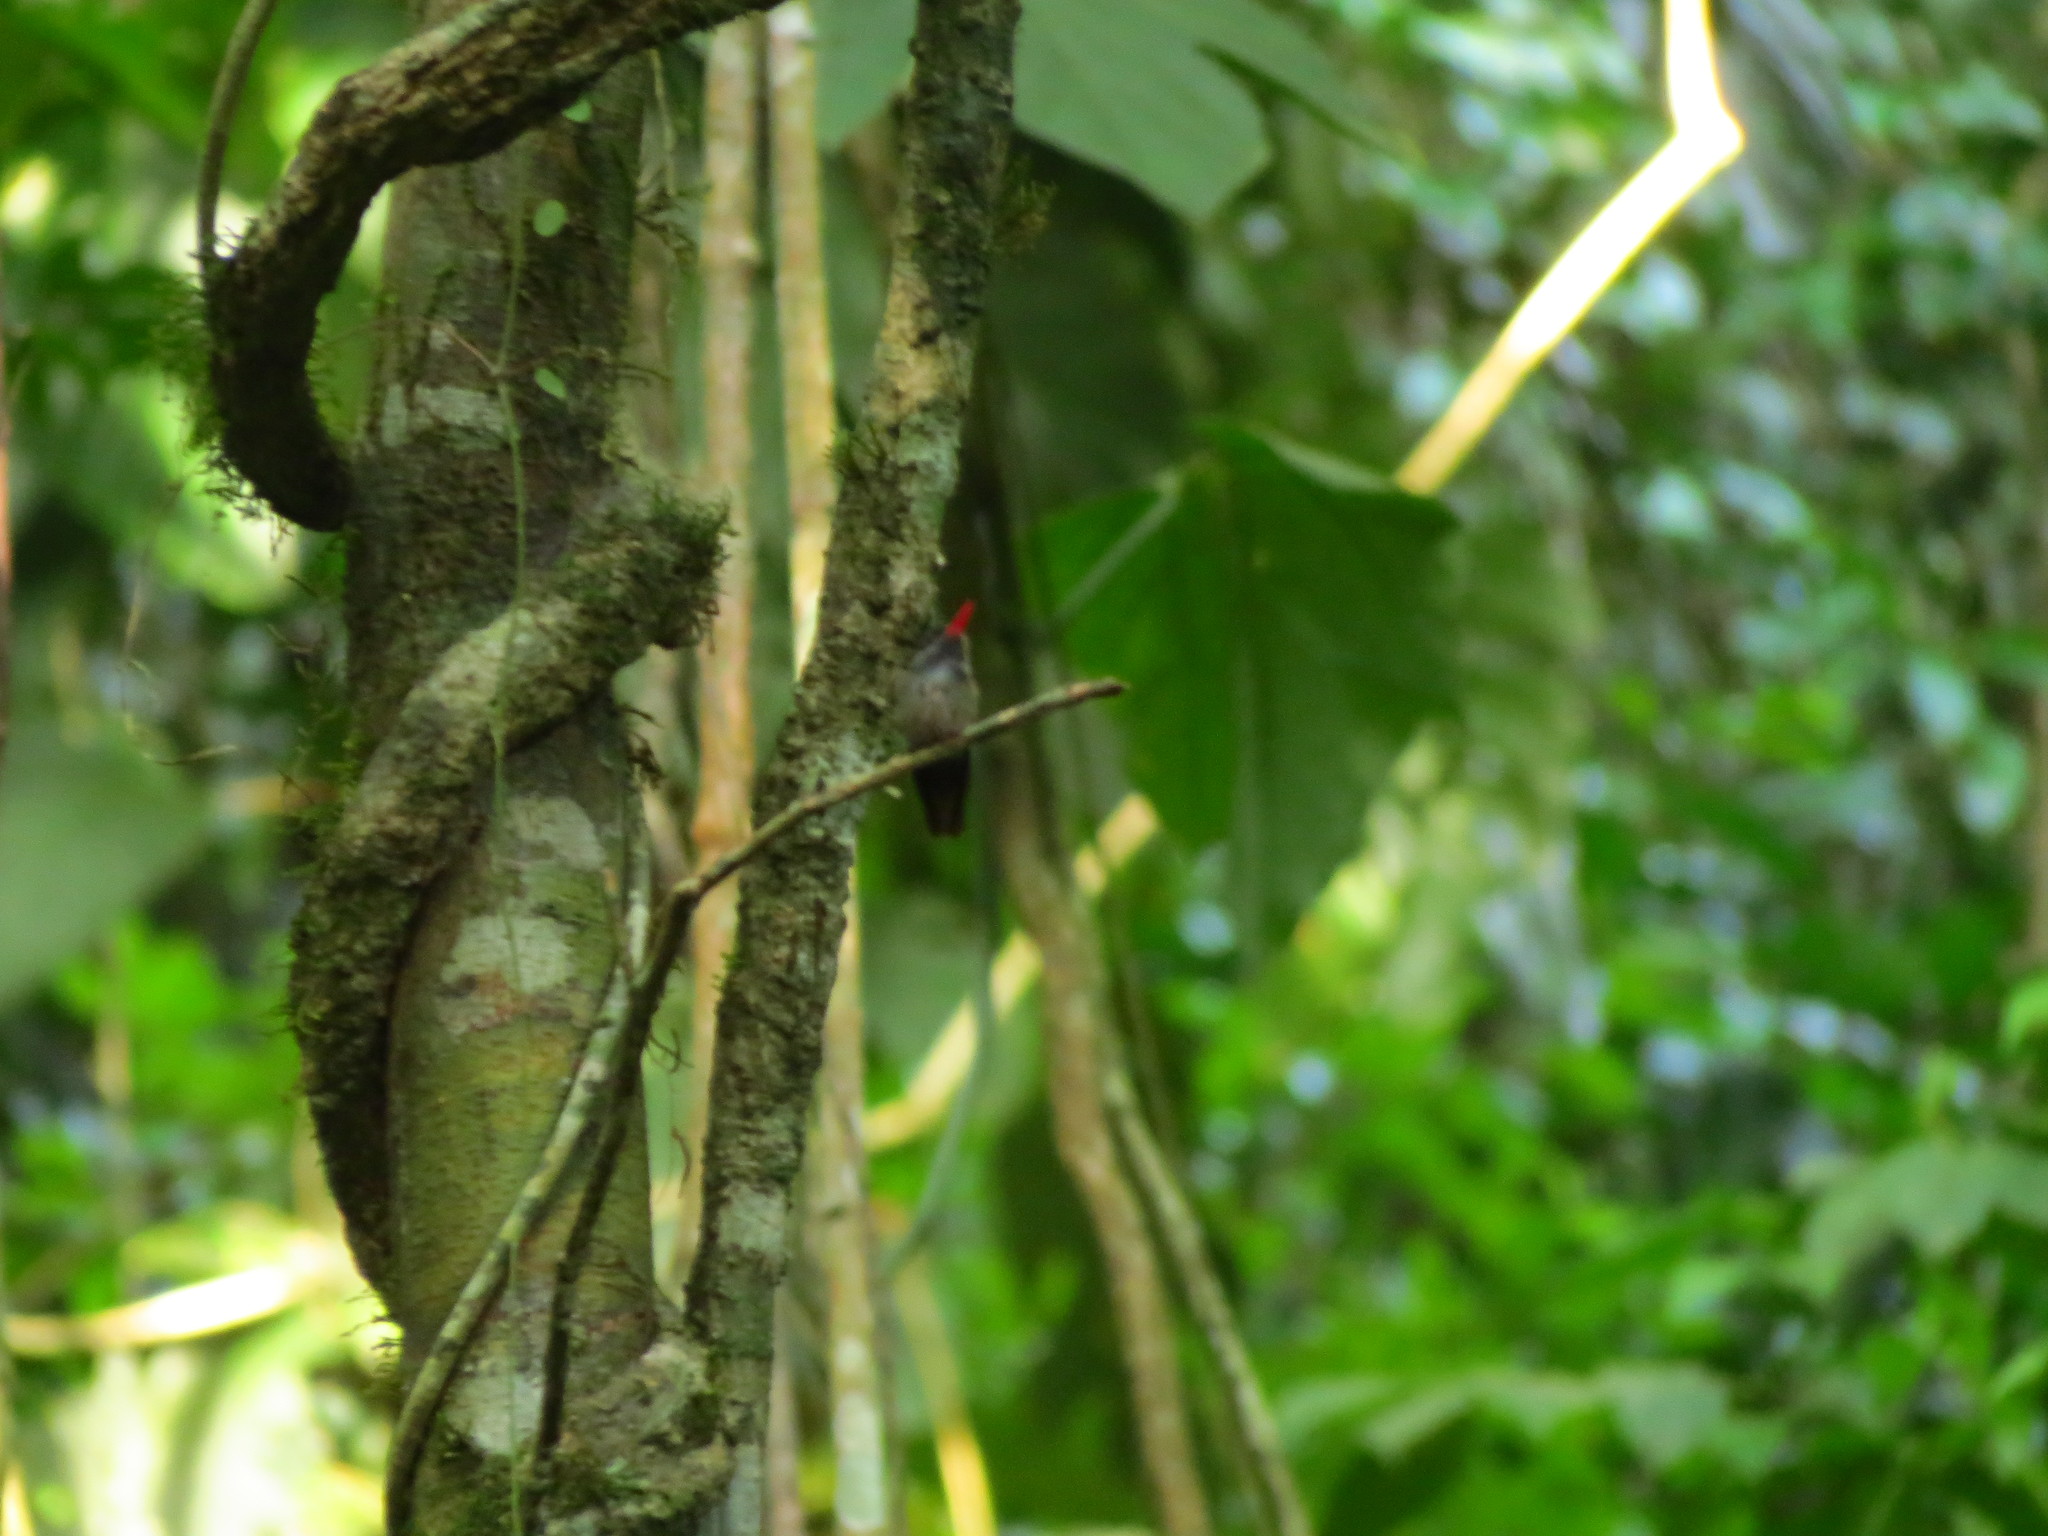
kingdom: Animalia
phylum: Chordata
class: Aves
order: Apodiformes
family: Trochilidae
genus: Chlorestes
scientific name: Chlorestes eliciae
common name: Blue-throated sapphire
